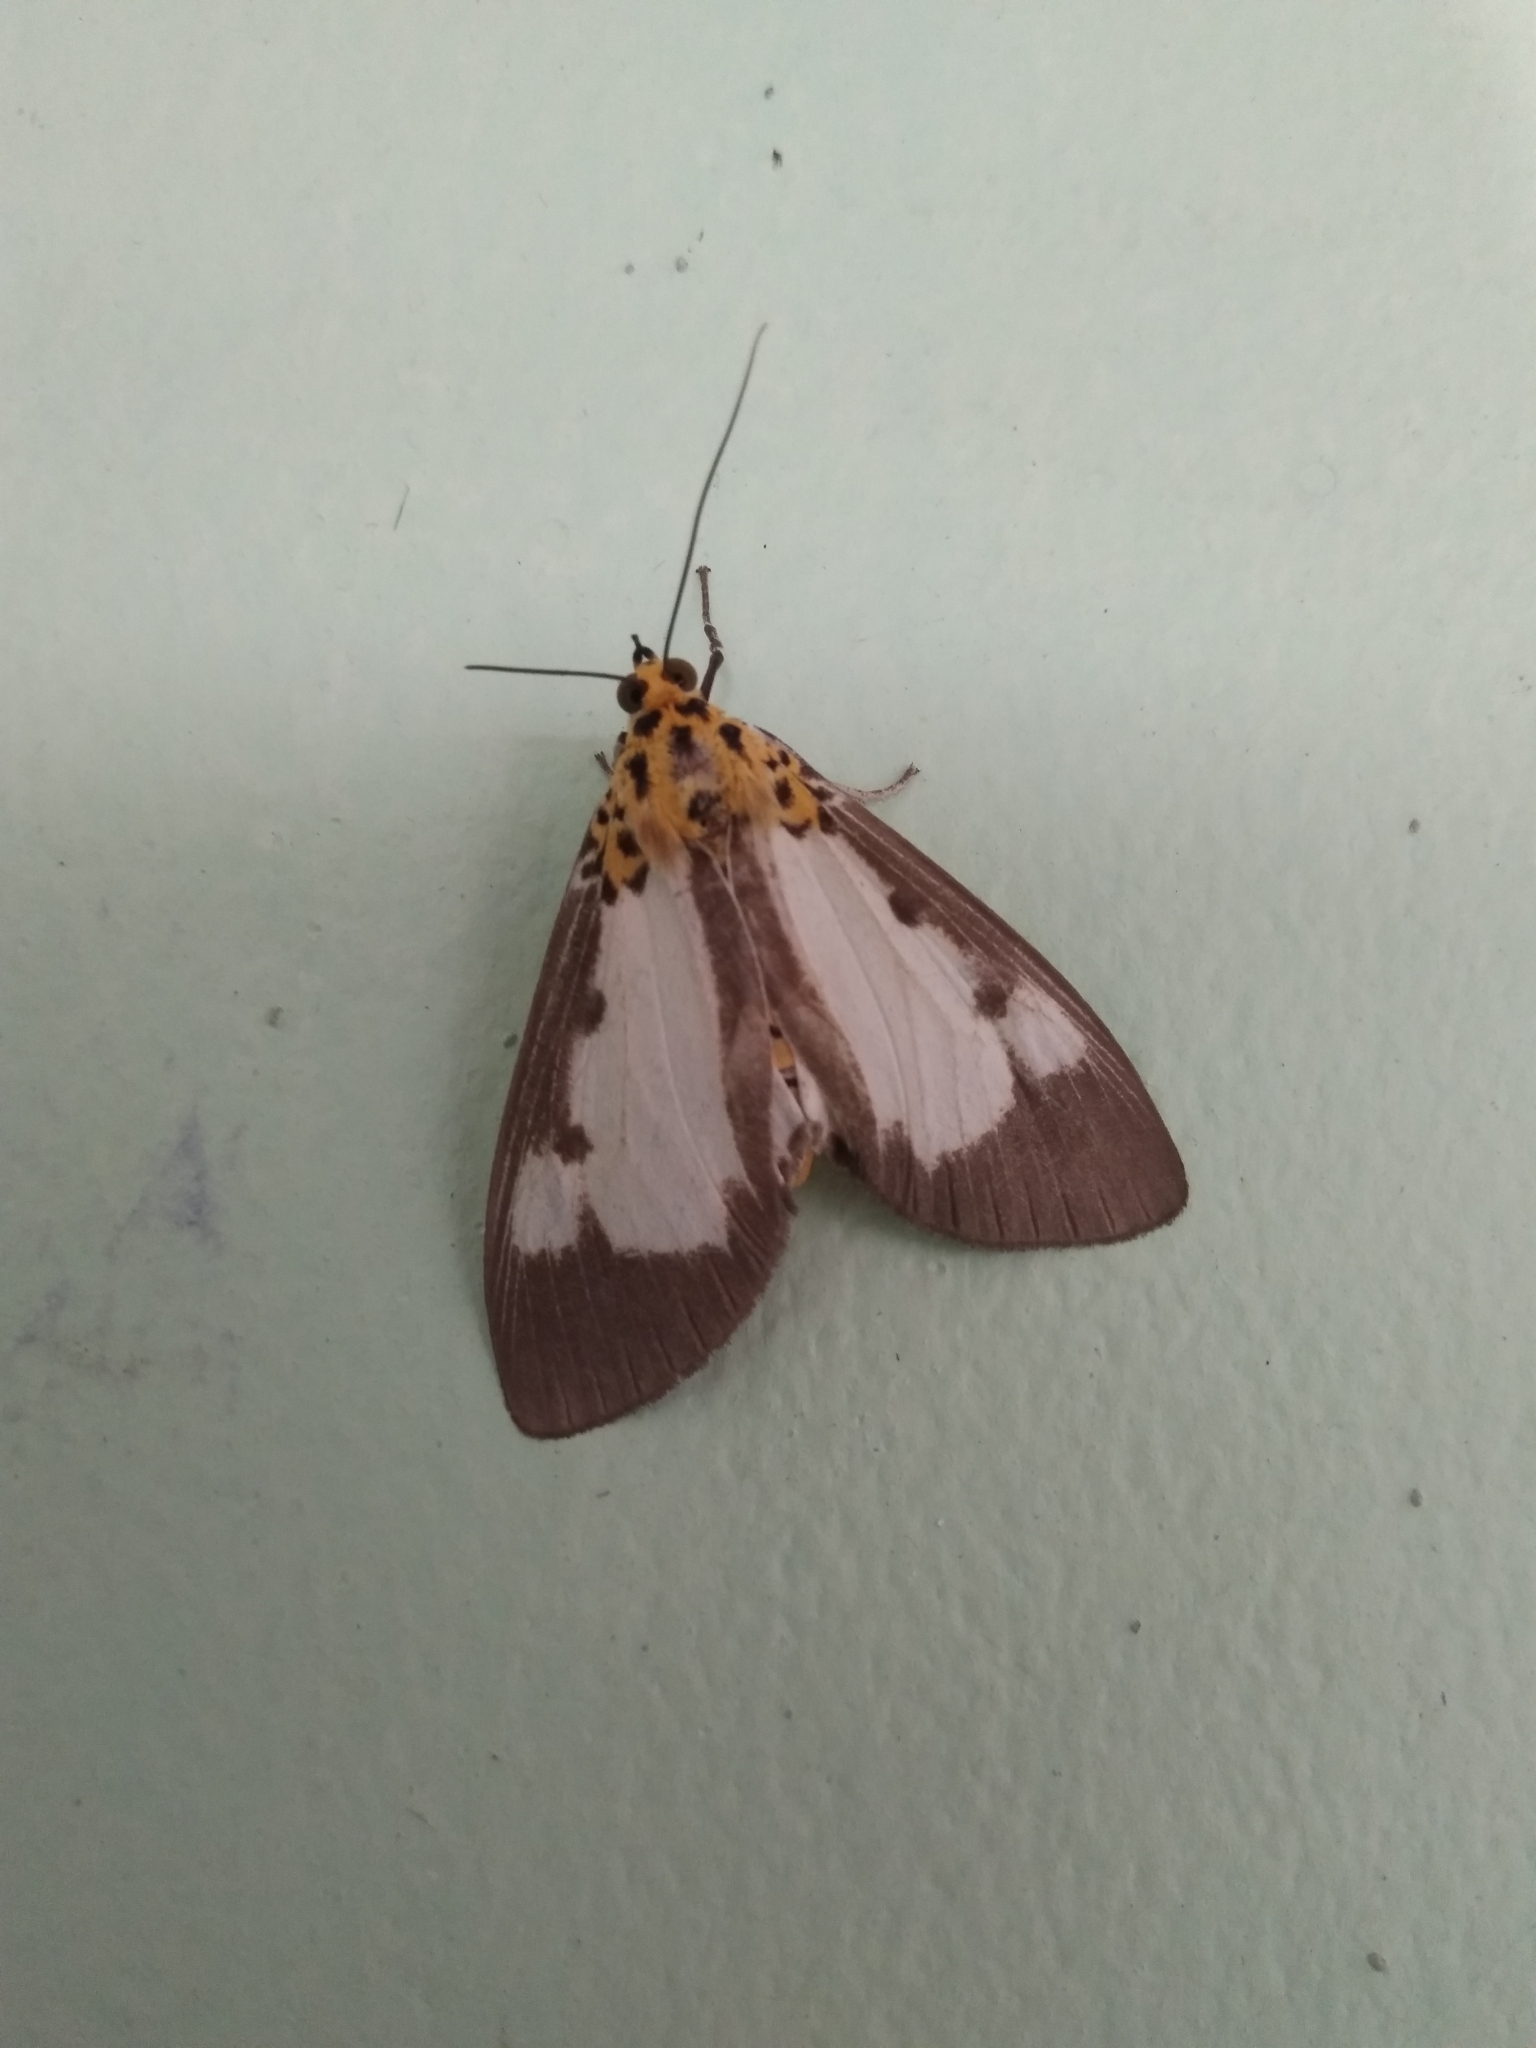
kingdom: Animalia
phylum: Arthropoda
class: Insecta
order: Lepidoptera
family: Erebidae
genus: Asota
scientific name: Asota plana
